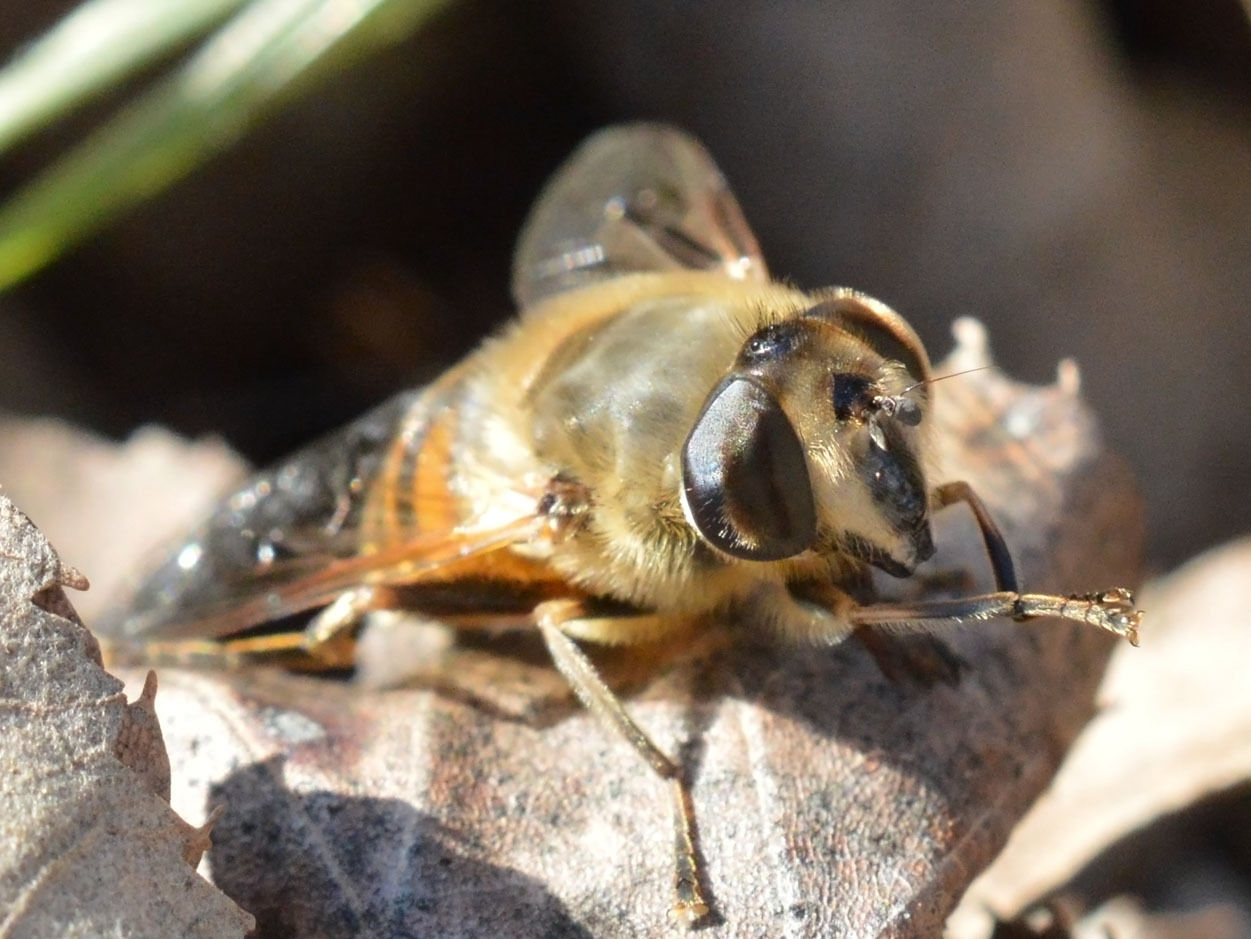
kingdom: Animalia
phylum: Arthropoda
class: Insecta
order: Diptera
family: Syrphidae
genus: Eristalis
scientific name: Eristalis tenax
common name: Drone fly
